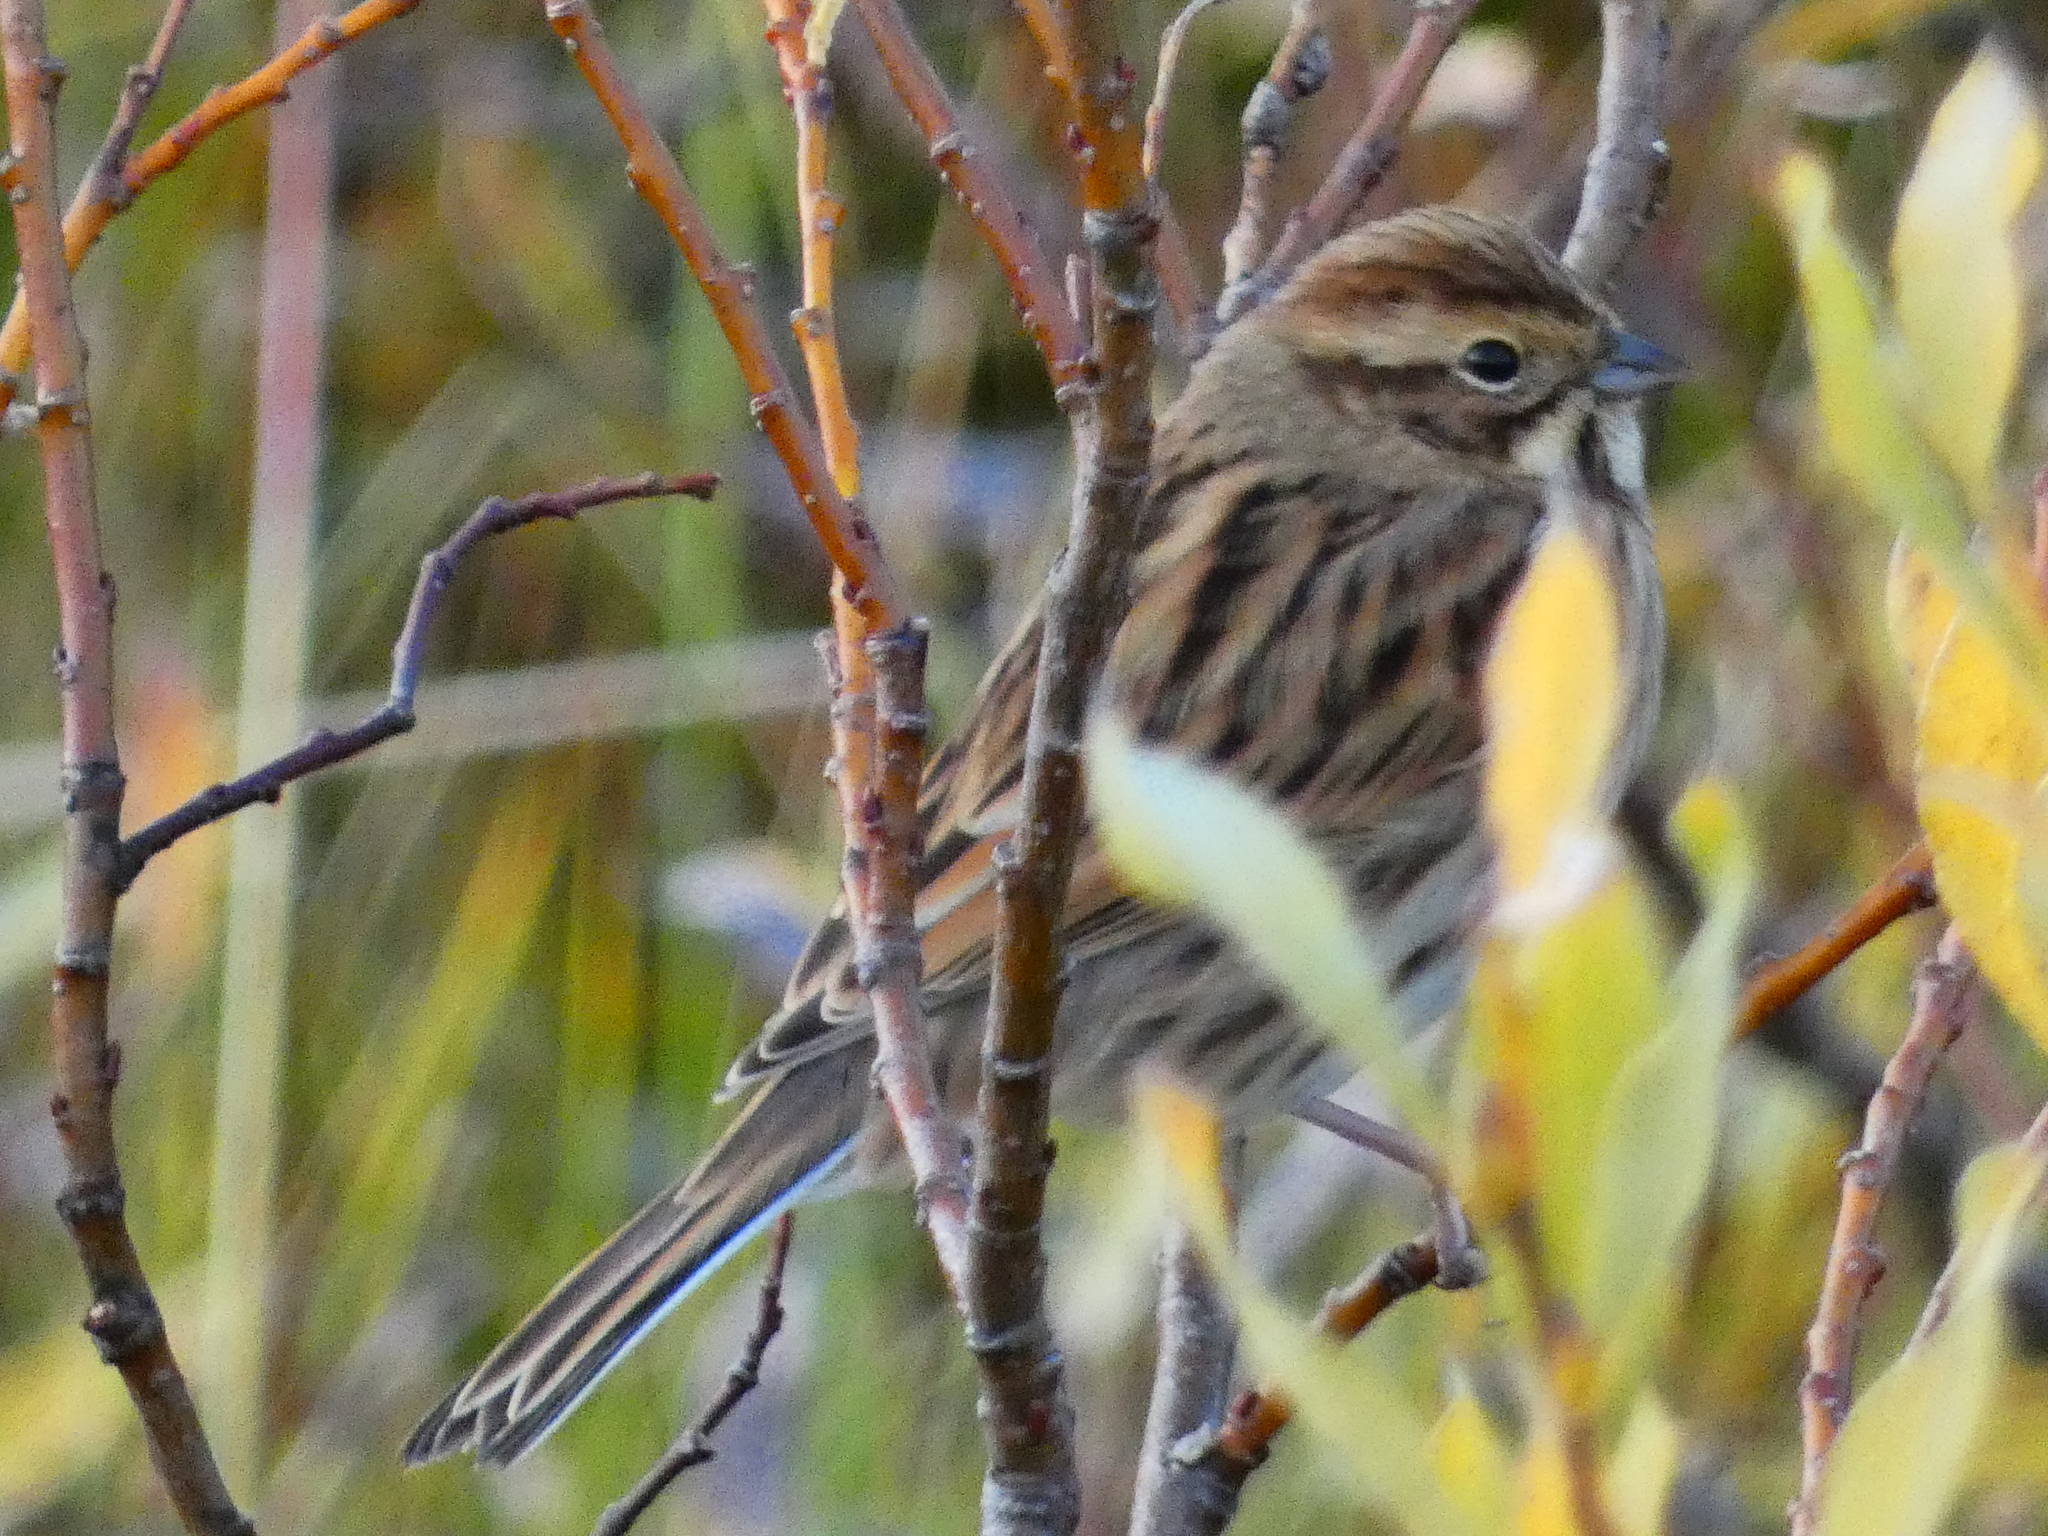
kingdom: Animalia
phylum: Chordata
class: Aves
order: Passeriformes
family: Emberizidae
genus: Emberiza
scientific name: Emberiza schoeniclus
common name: Reed bunting
